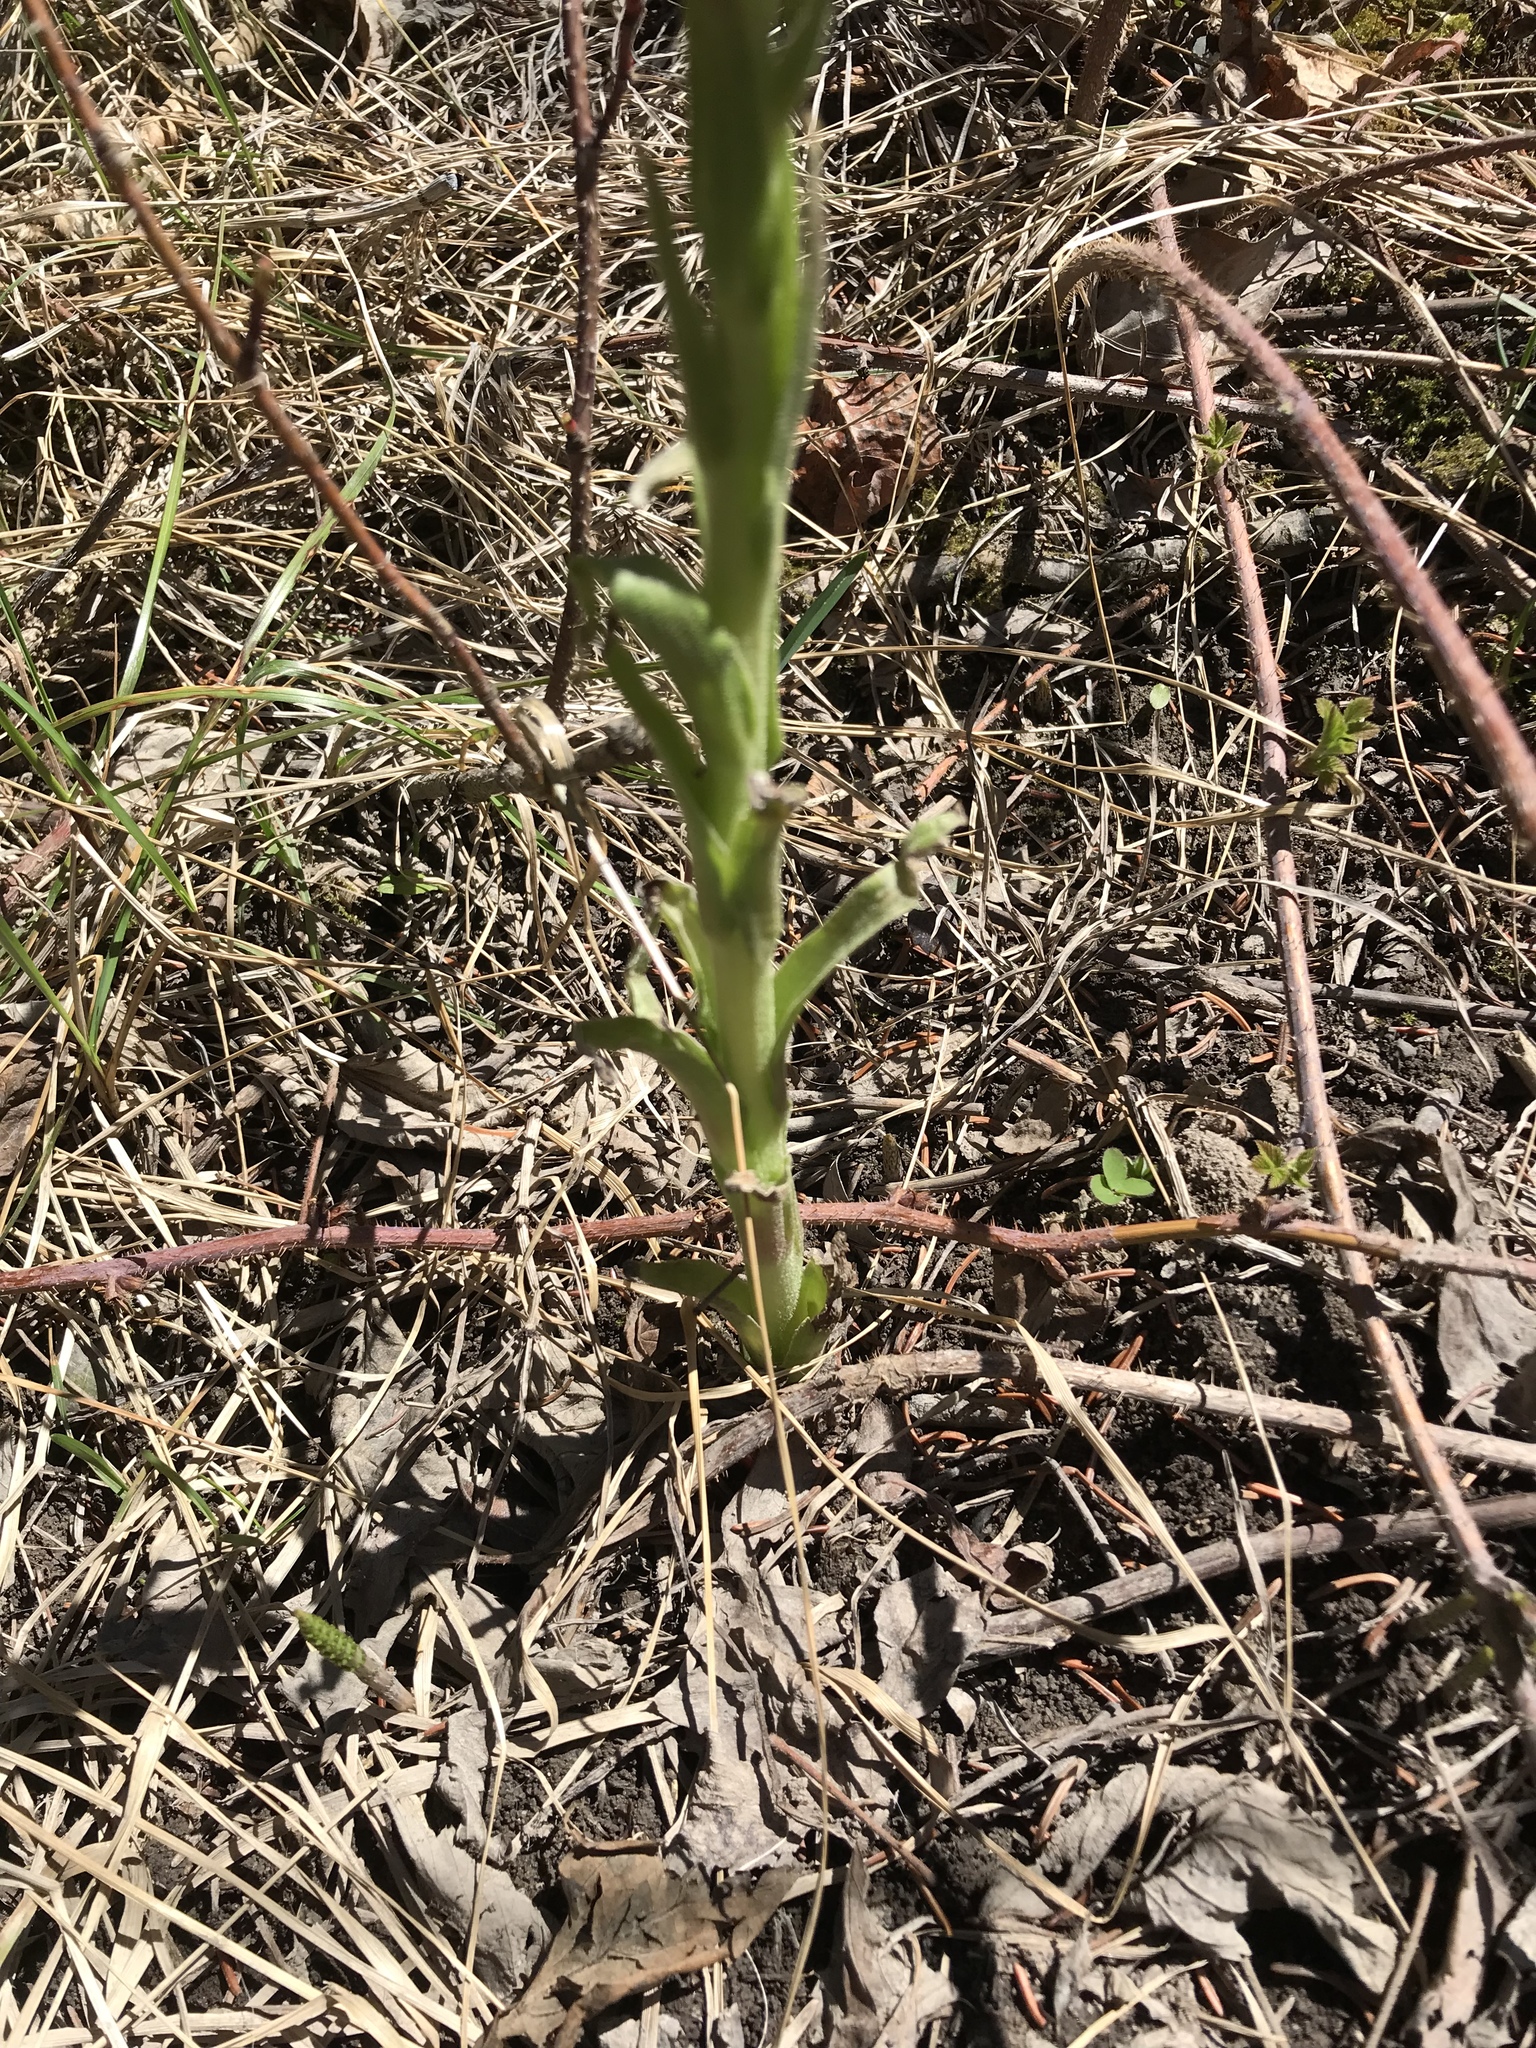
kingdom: Plantae
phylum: Tracheophyta
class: Magnoliopsida
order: Asterales
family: Asteraceae
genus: Petasites
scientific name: Petasites frigidus
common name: Arctic butterbur
